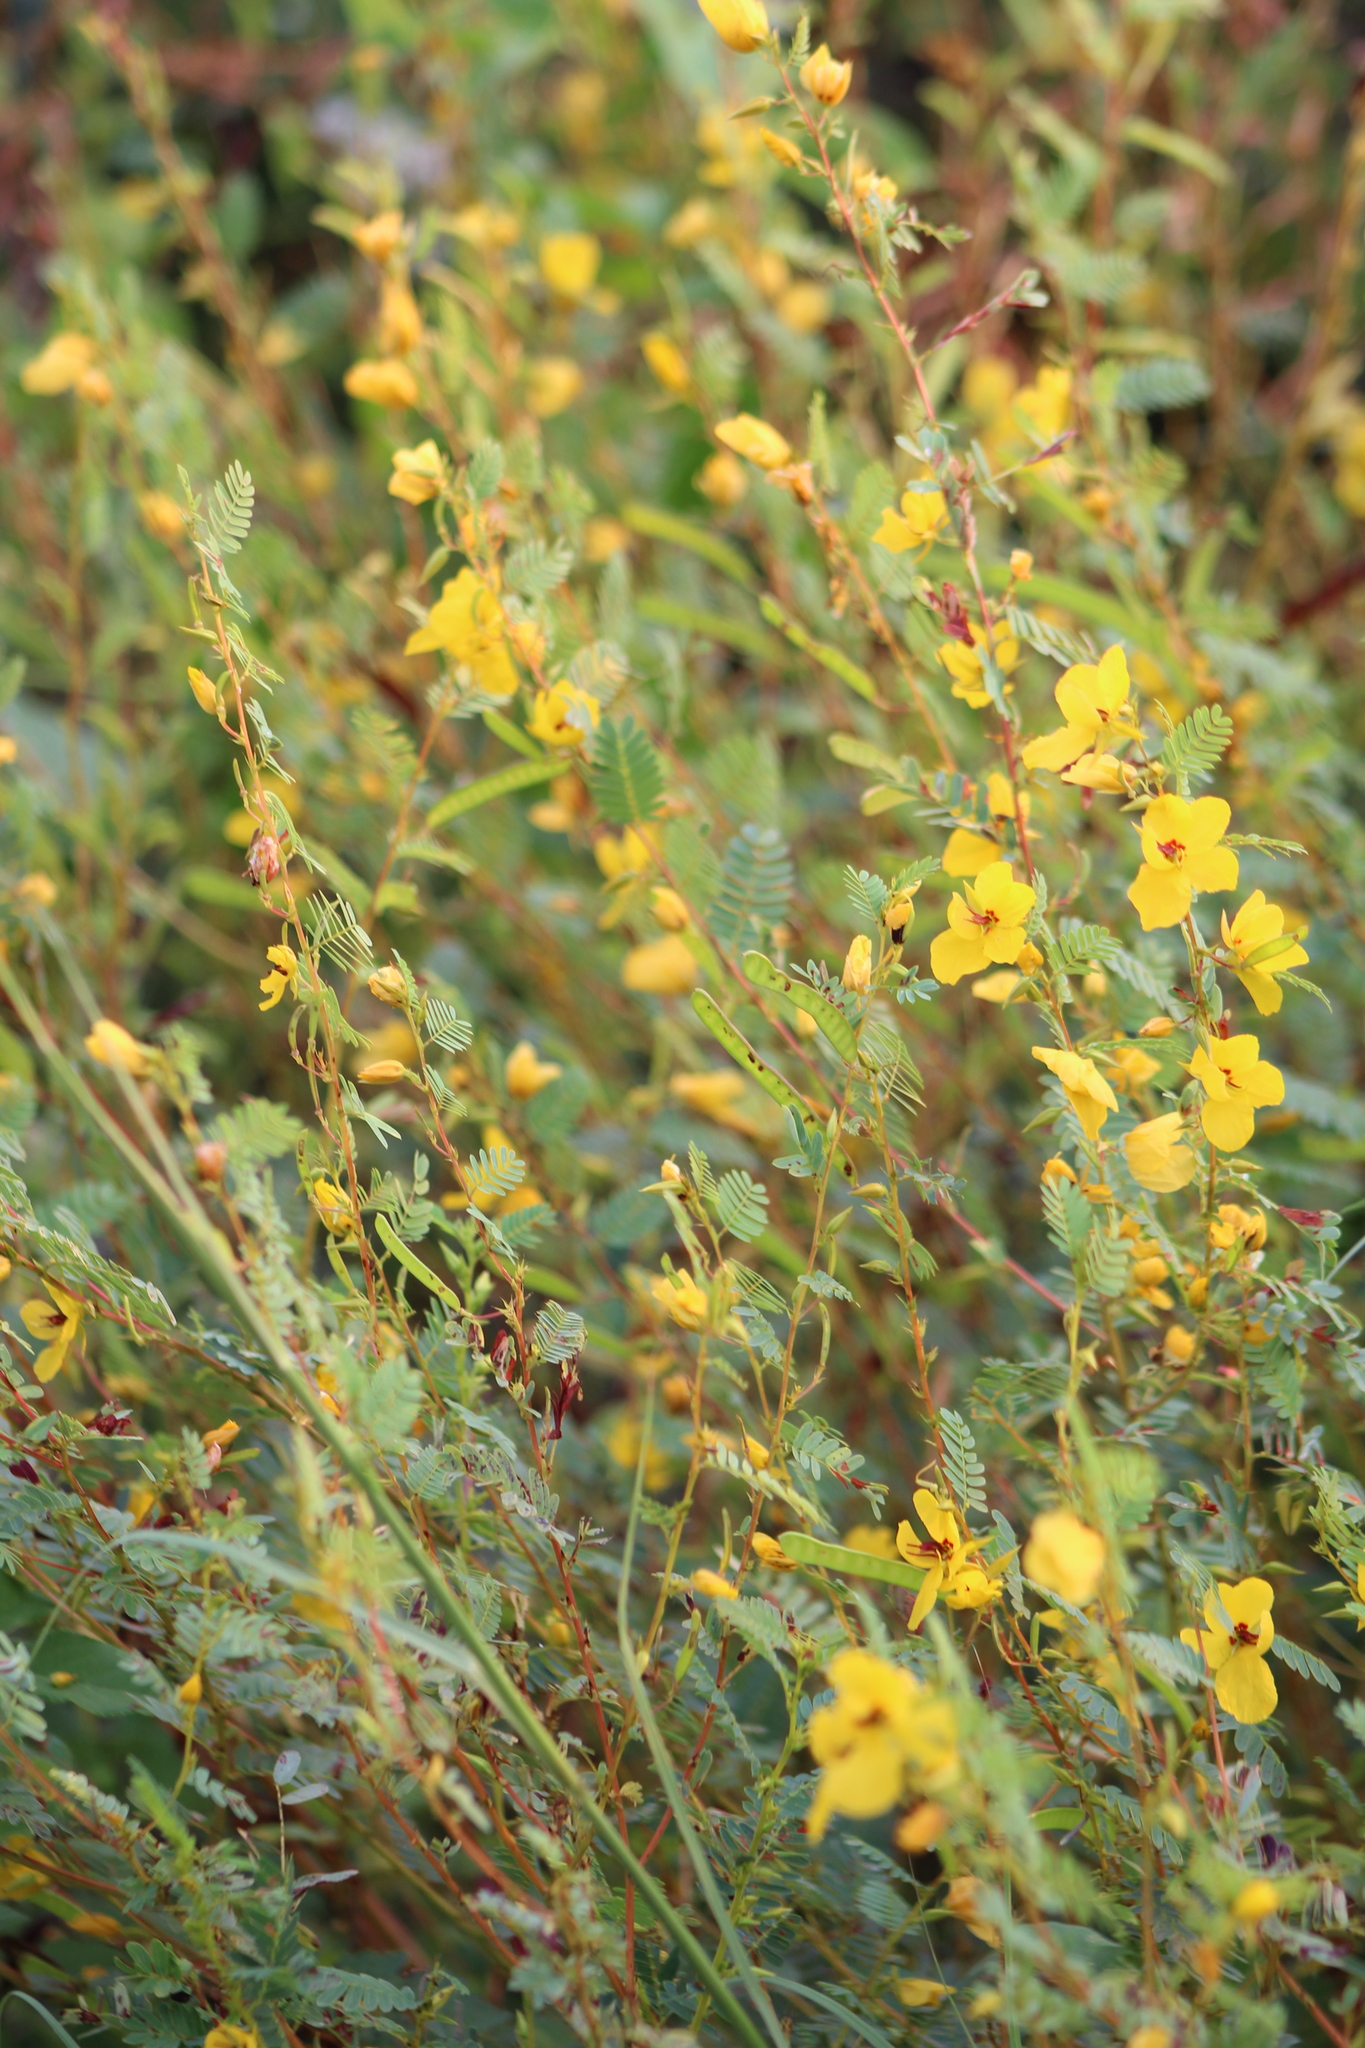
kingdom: Plantae
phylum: Tracheophyta
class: Magnoliopsida
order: Fabales
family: Fabaceae
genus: Chamaecrista
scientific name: Chamaecrista fasciculata
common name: Golden cassia
